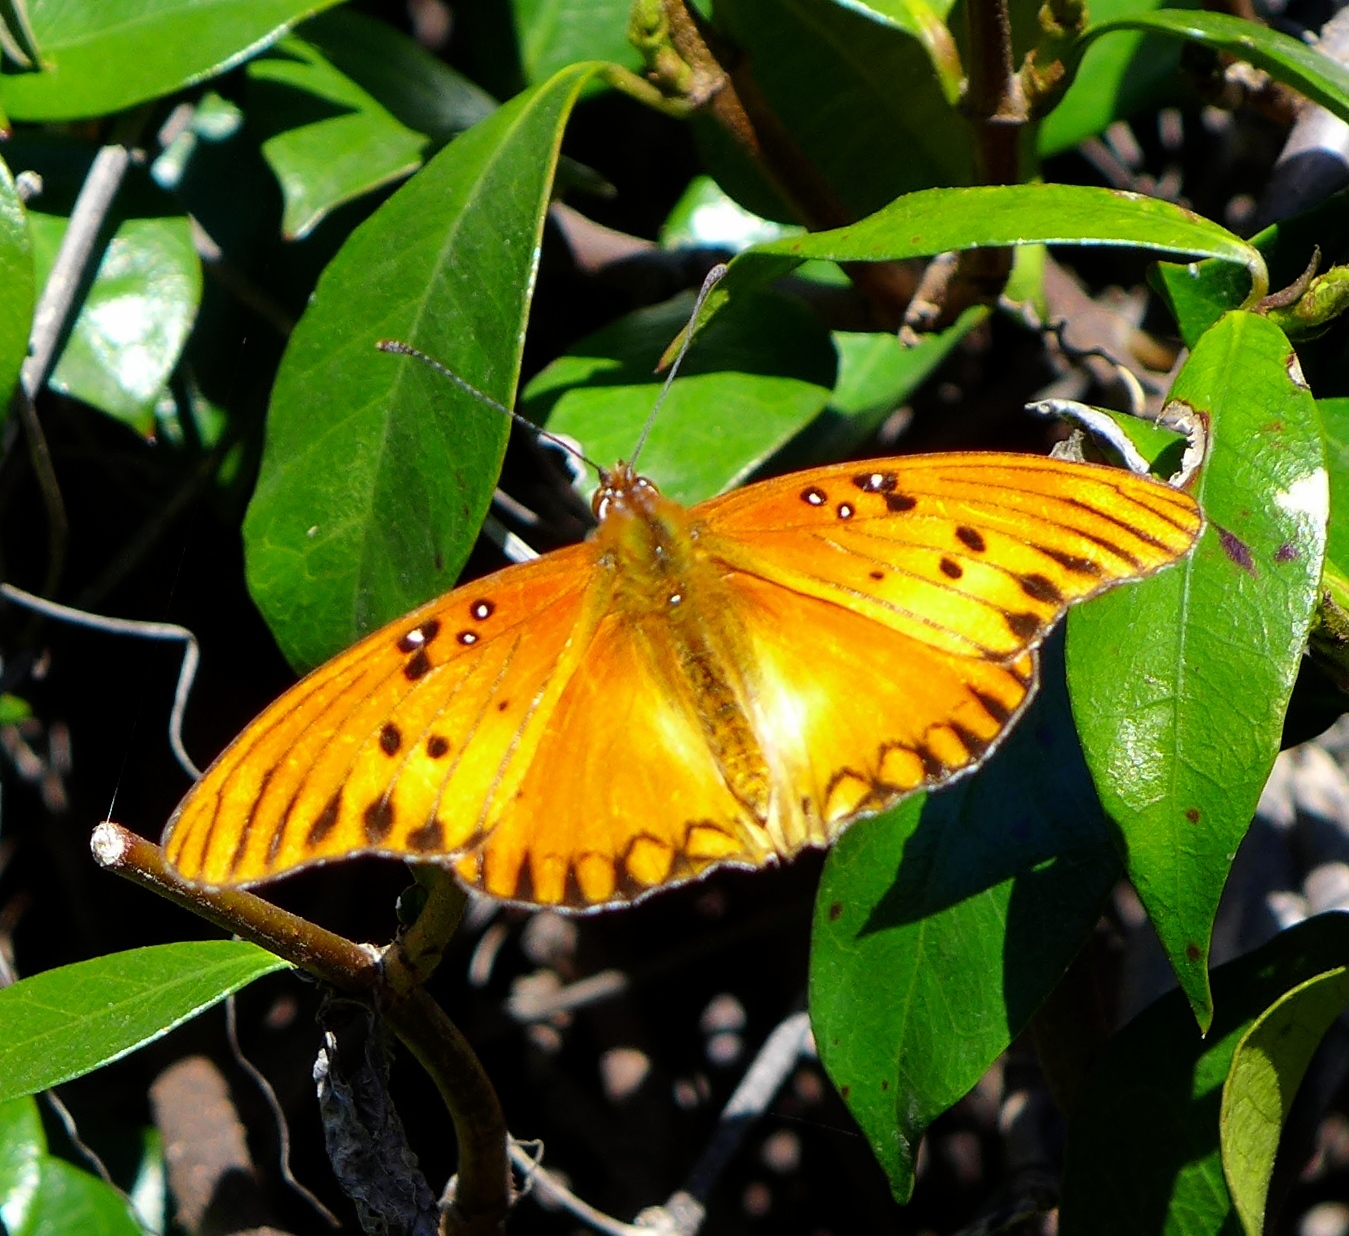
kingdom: Animalia
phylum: Arthropoda
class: Insecta
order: Lepidoptera
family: Nymphalidae
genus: Dione
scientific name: Dione vanillae
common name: Gulf fritillary
